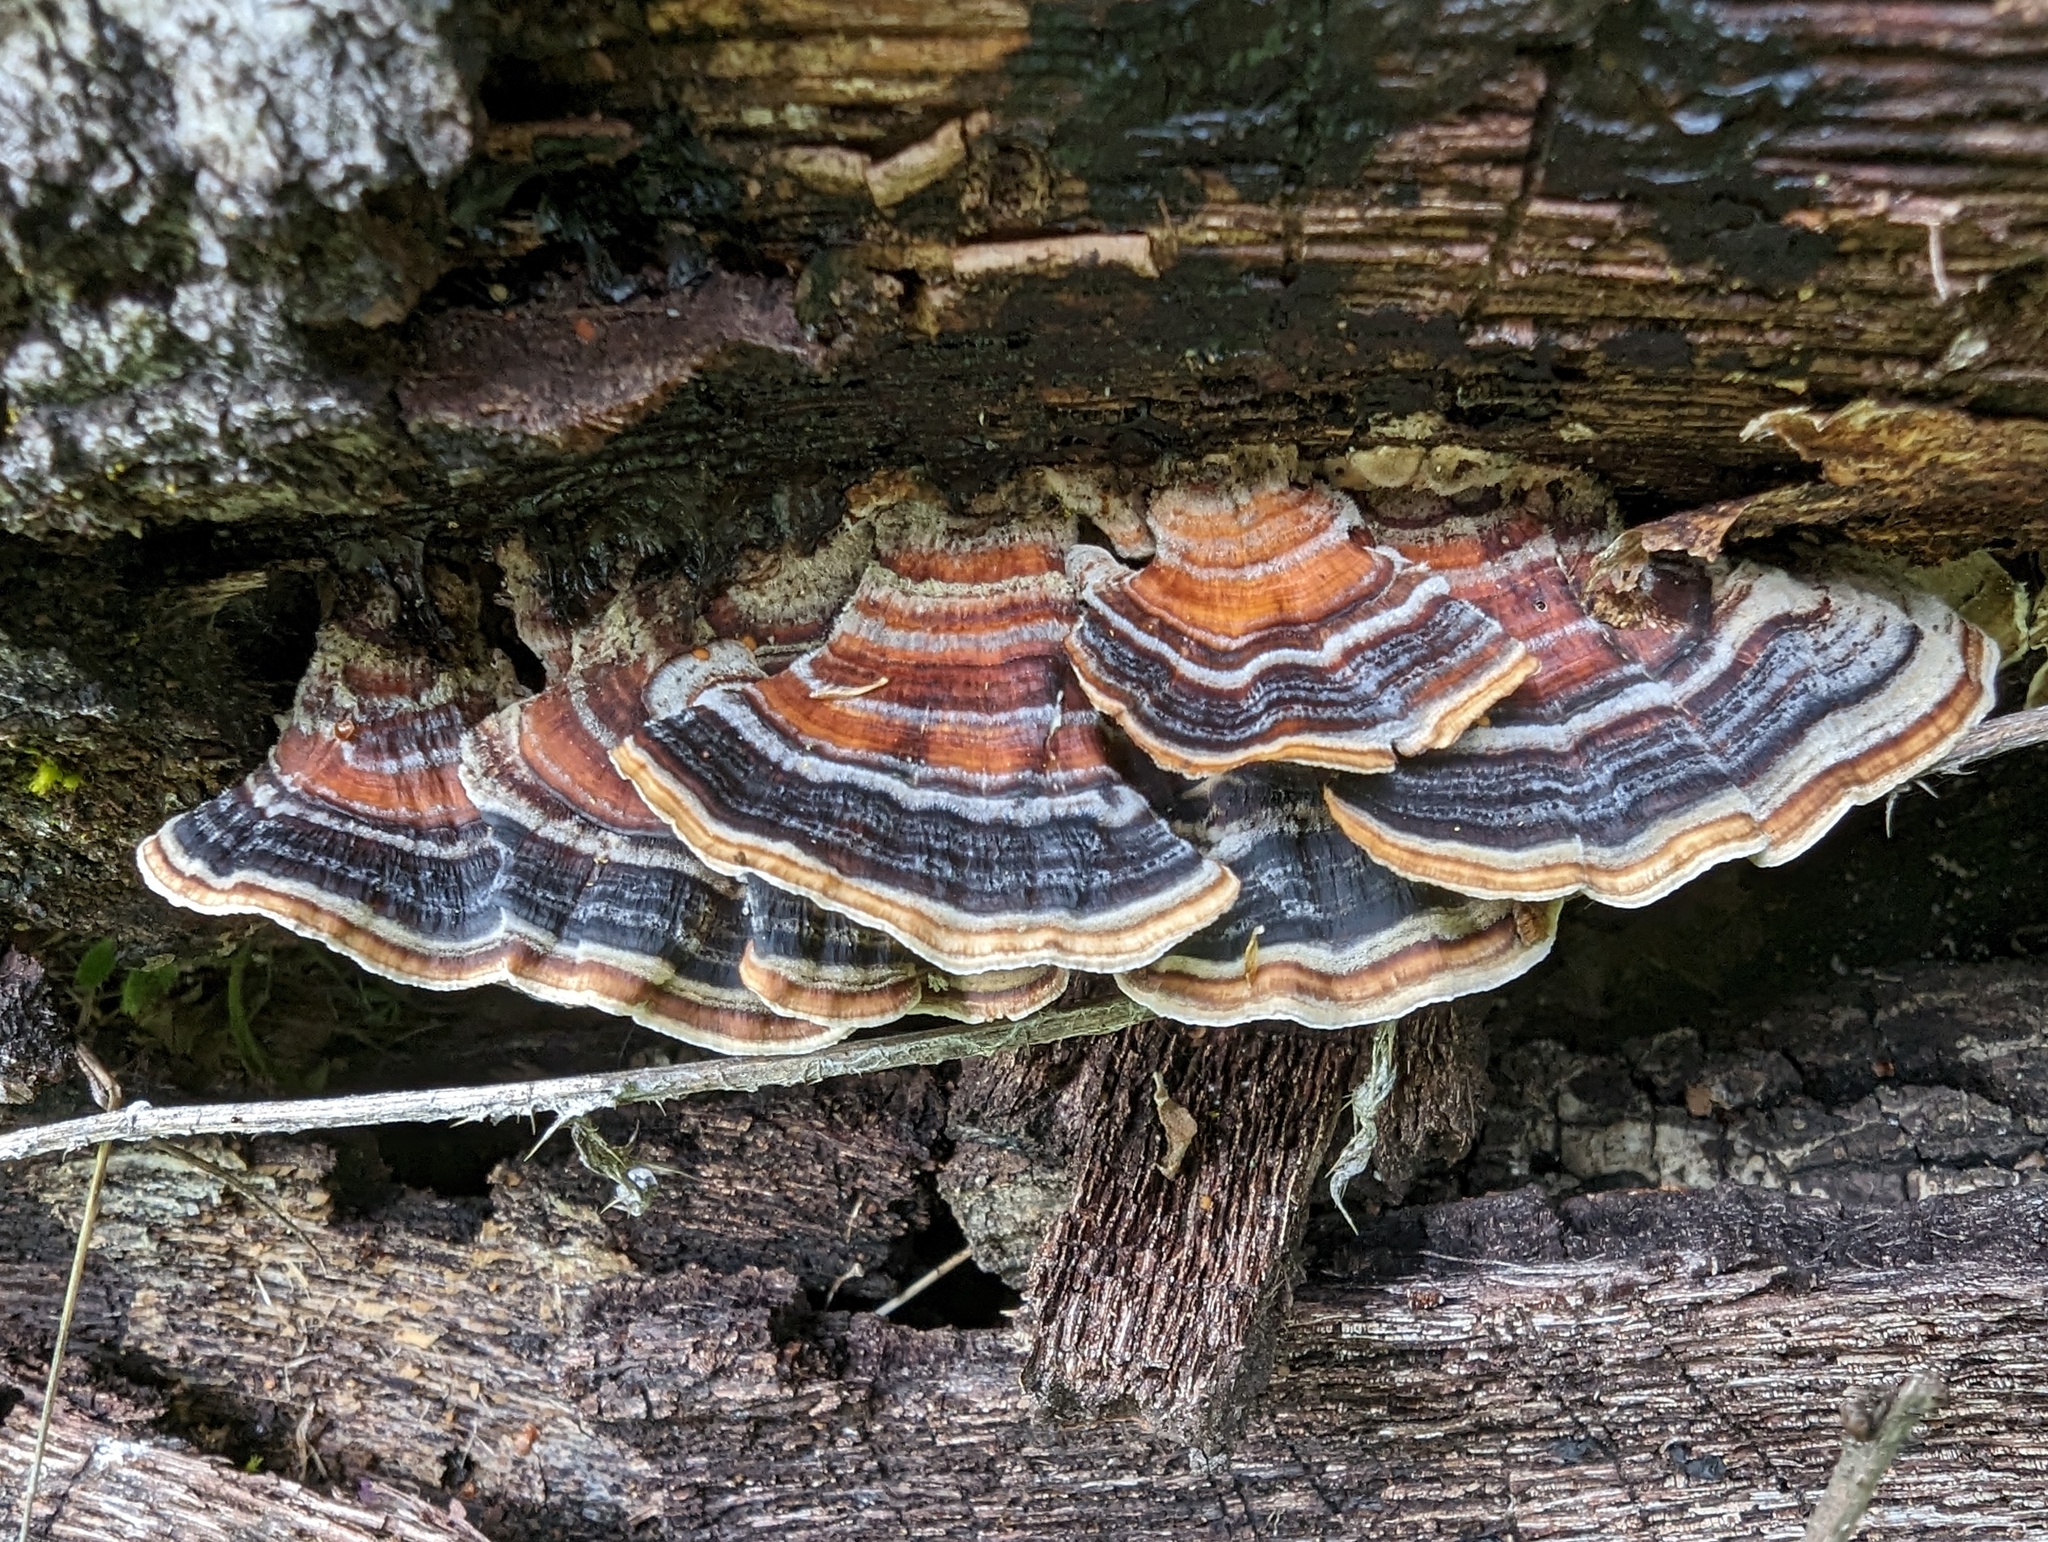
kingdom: Fungi
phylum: Basidiomycota
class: Agaricomycetes
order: Polyporales
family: Polyporaceae
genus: Trametes
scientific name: Trametes versicolor
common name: Turkeytail
